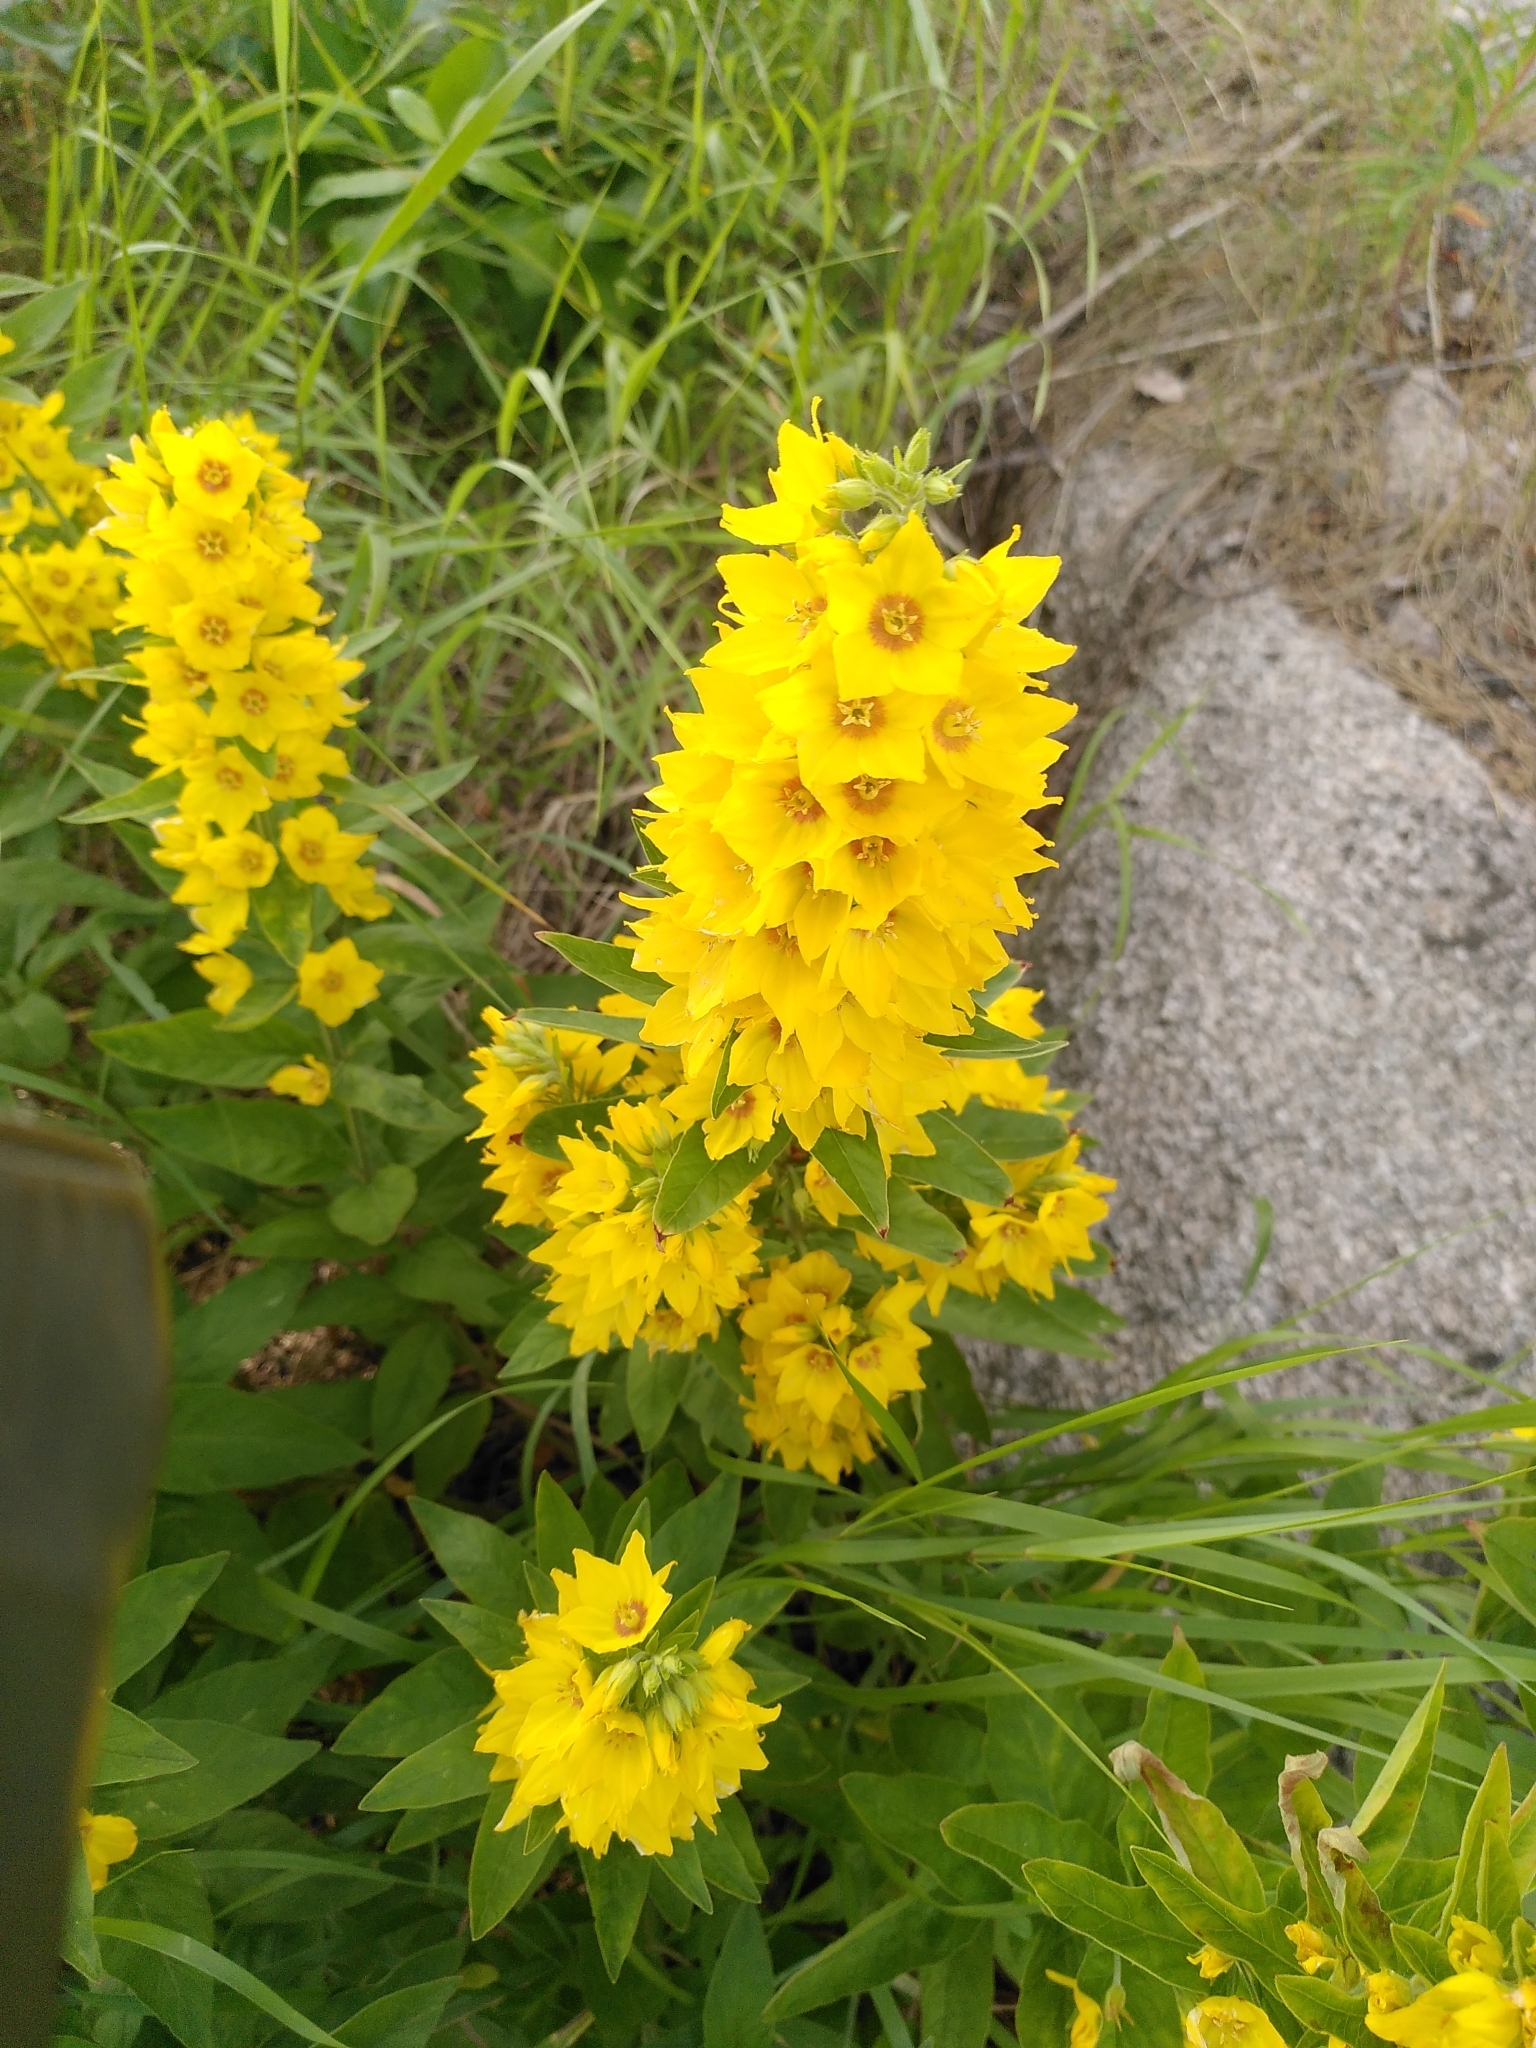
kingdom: Plantae
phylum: Tracheophyta
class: Magnoliopsida
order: Ericales
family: Primulaceae
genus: Lysimachia
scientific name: Lysimachia punctata
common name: Dotted loosestrife
